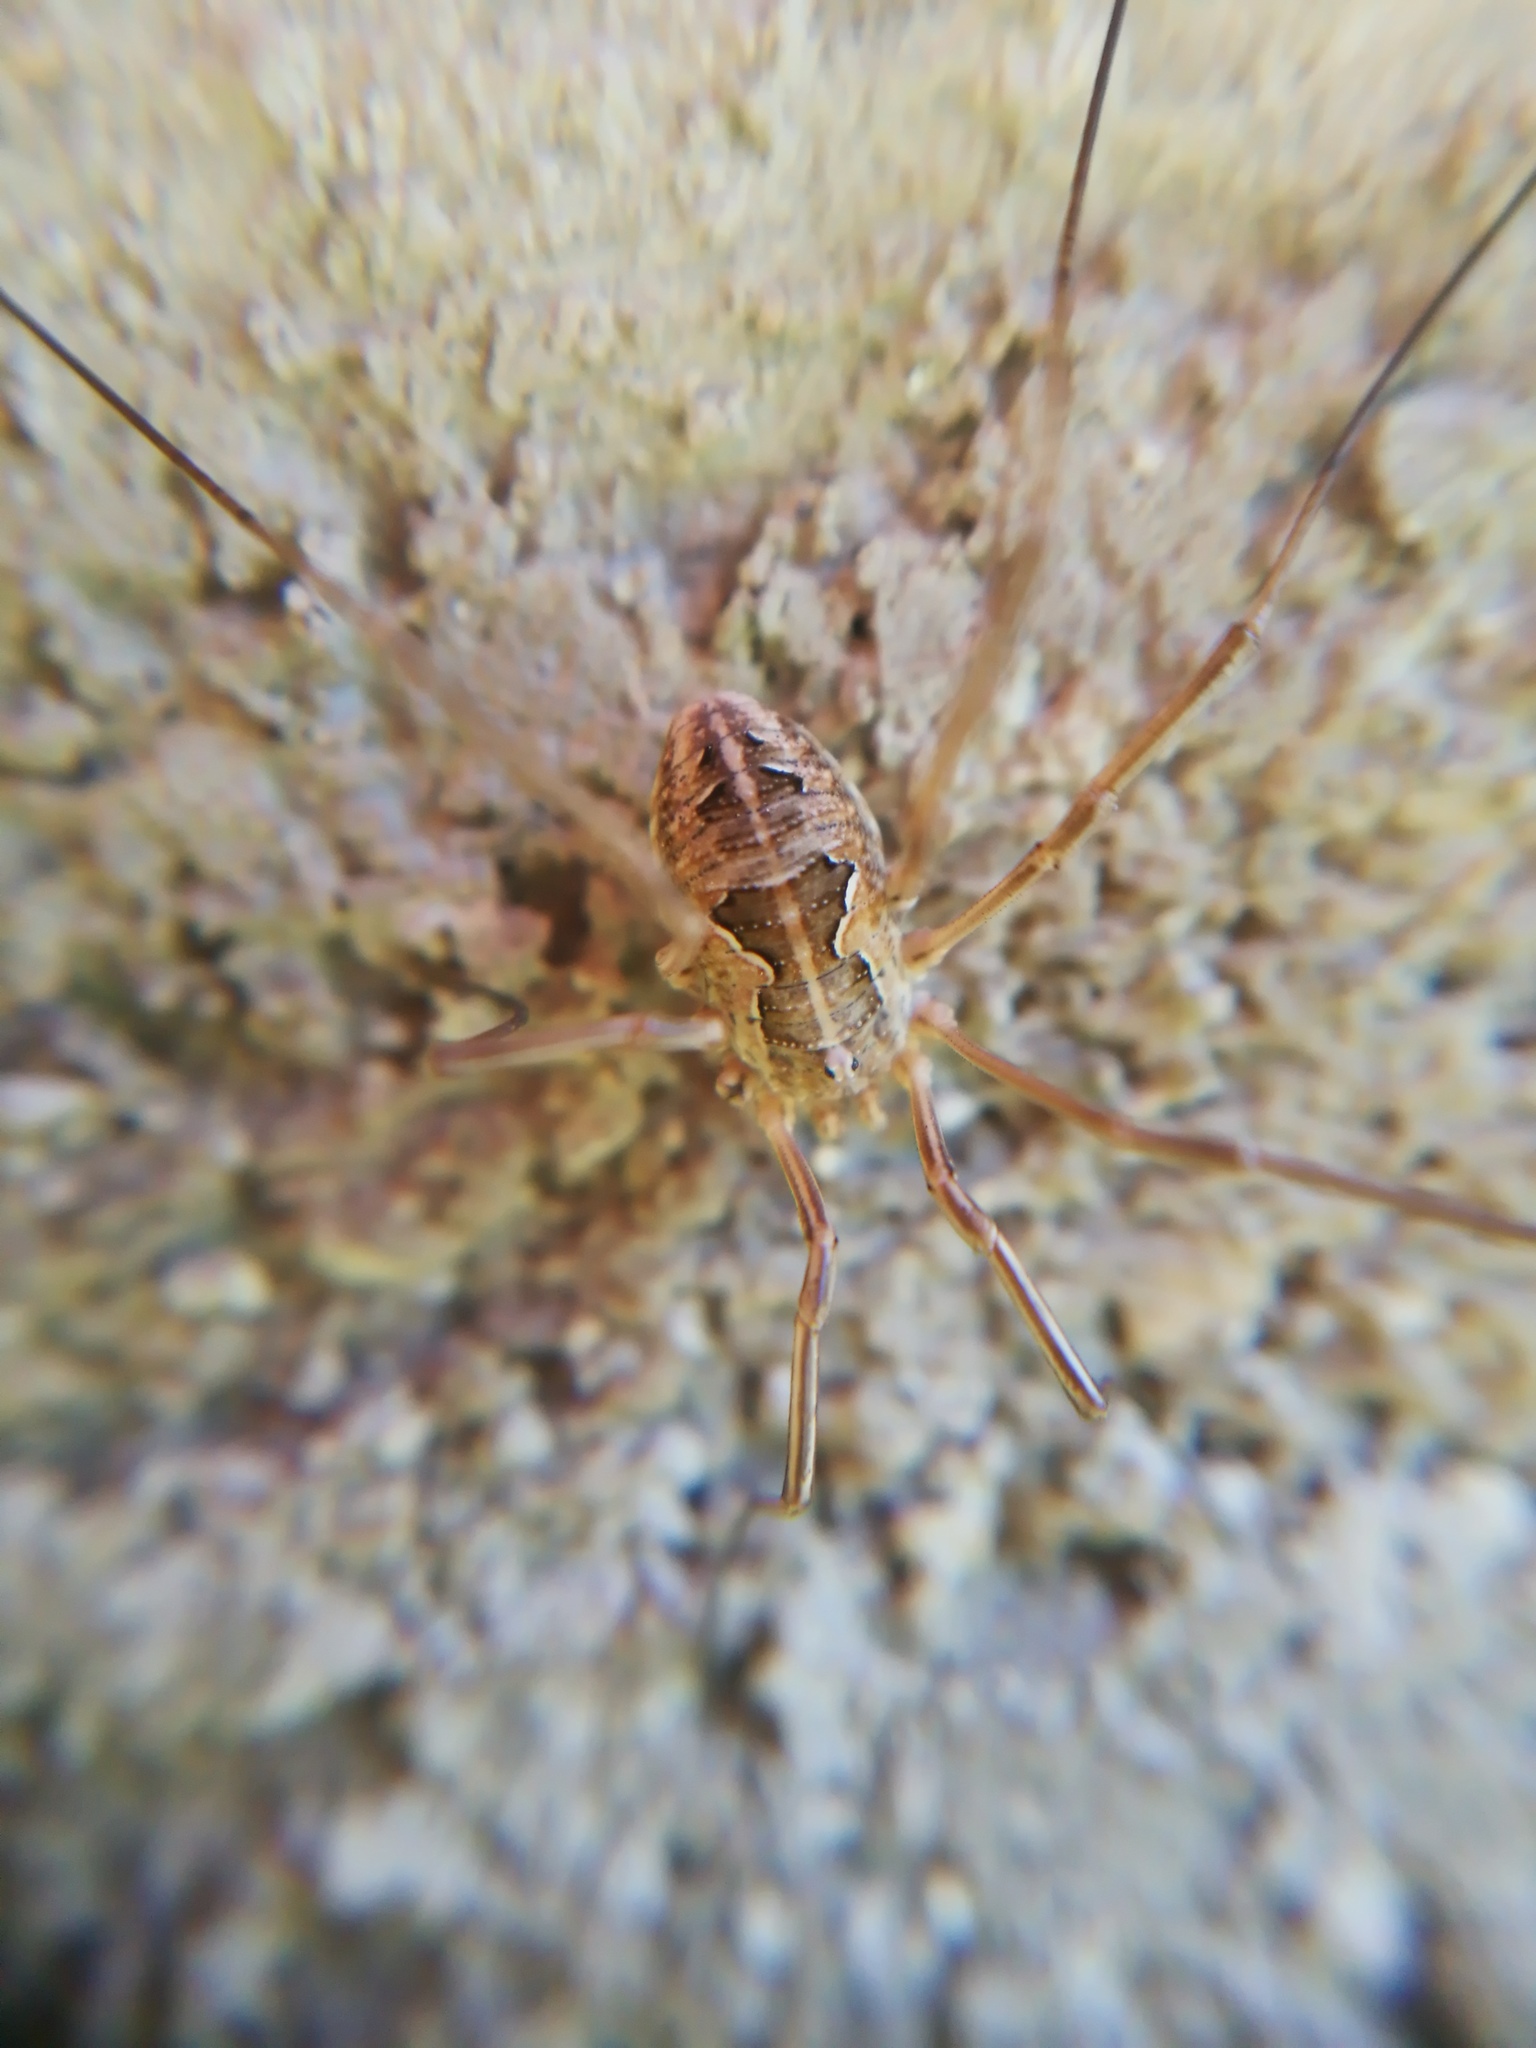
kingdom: Animalia
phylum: Arthropoda
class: Arachnida
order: Opiliones
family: Phalangiidae
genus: Metaphalangium
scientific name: Metaphalangium cirtanum
